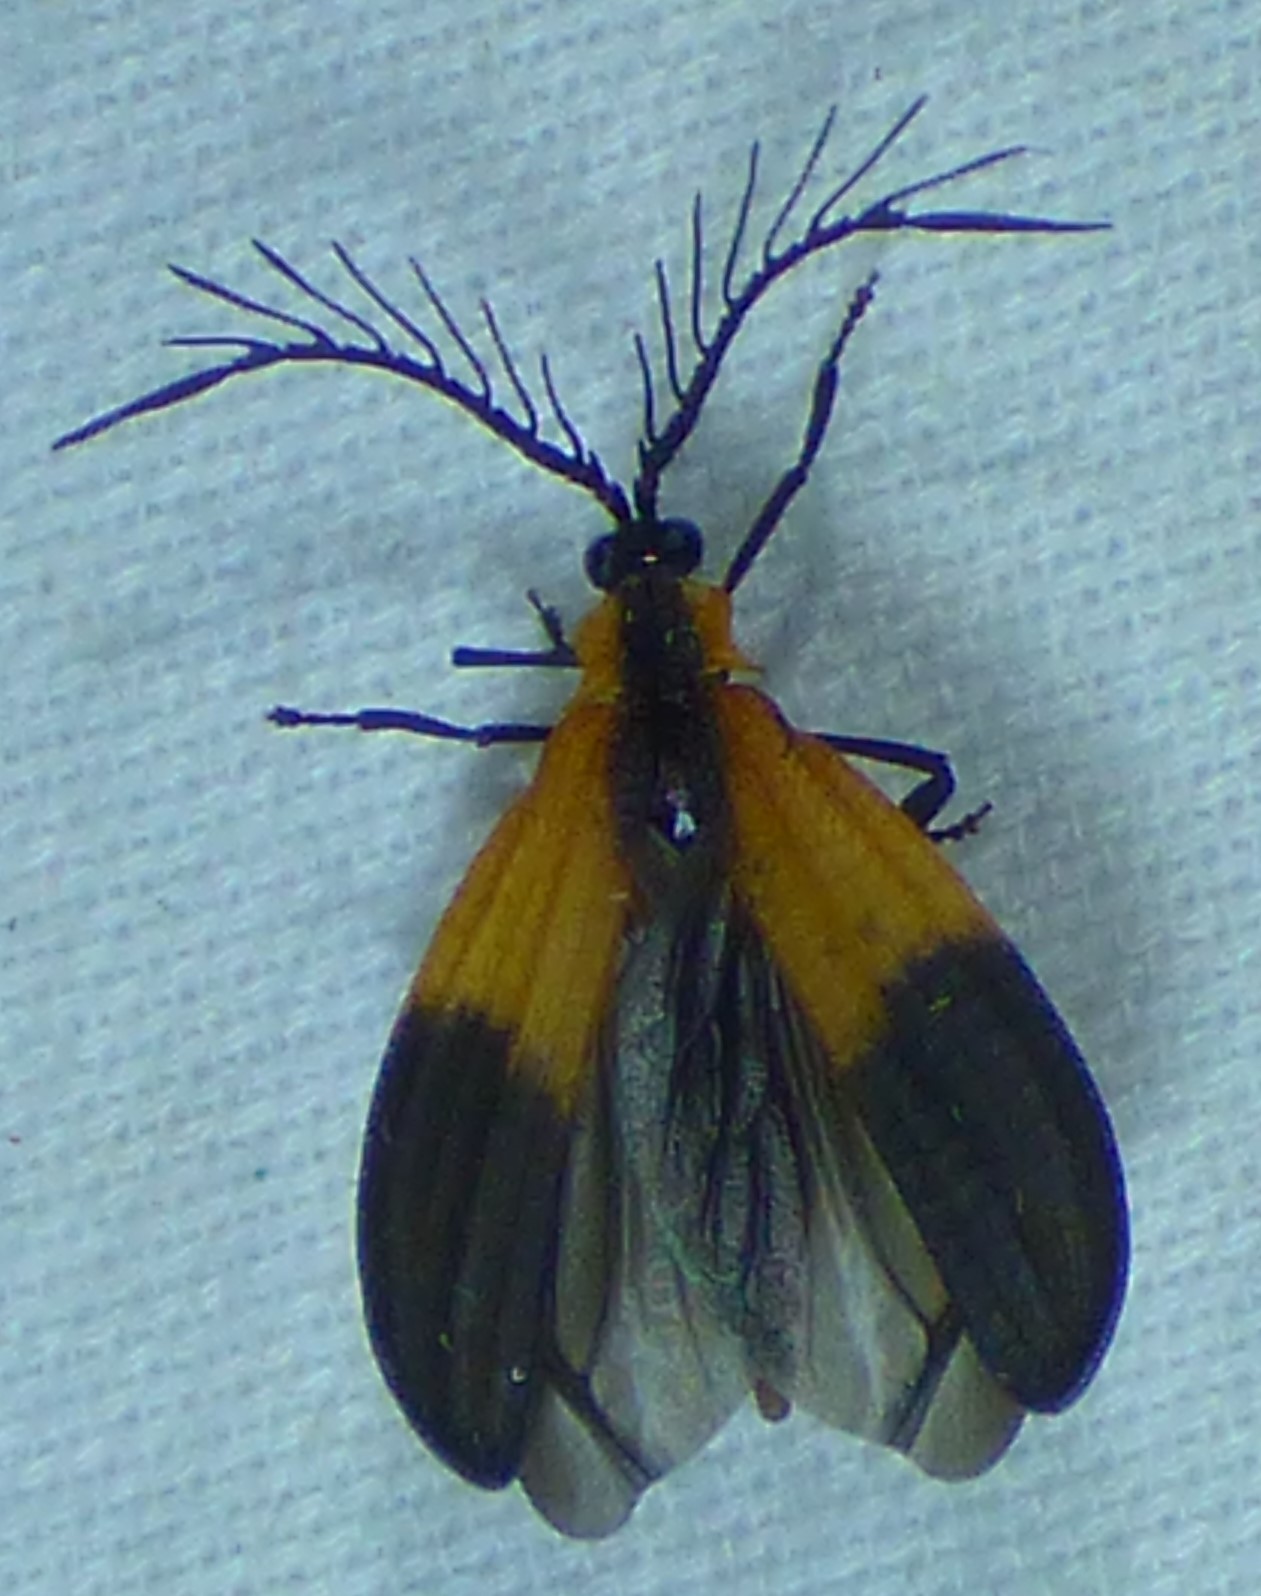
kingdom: Animalia
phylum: Arthropoda
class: Insecta
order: Coleoptera
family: Lycidae
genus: Caenia
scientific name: Caenia dimidiata
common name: Terminal net-winged beetle
